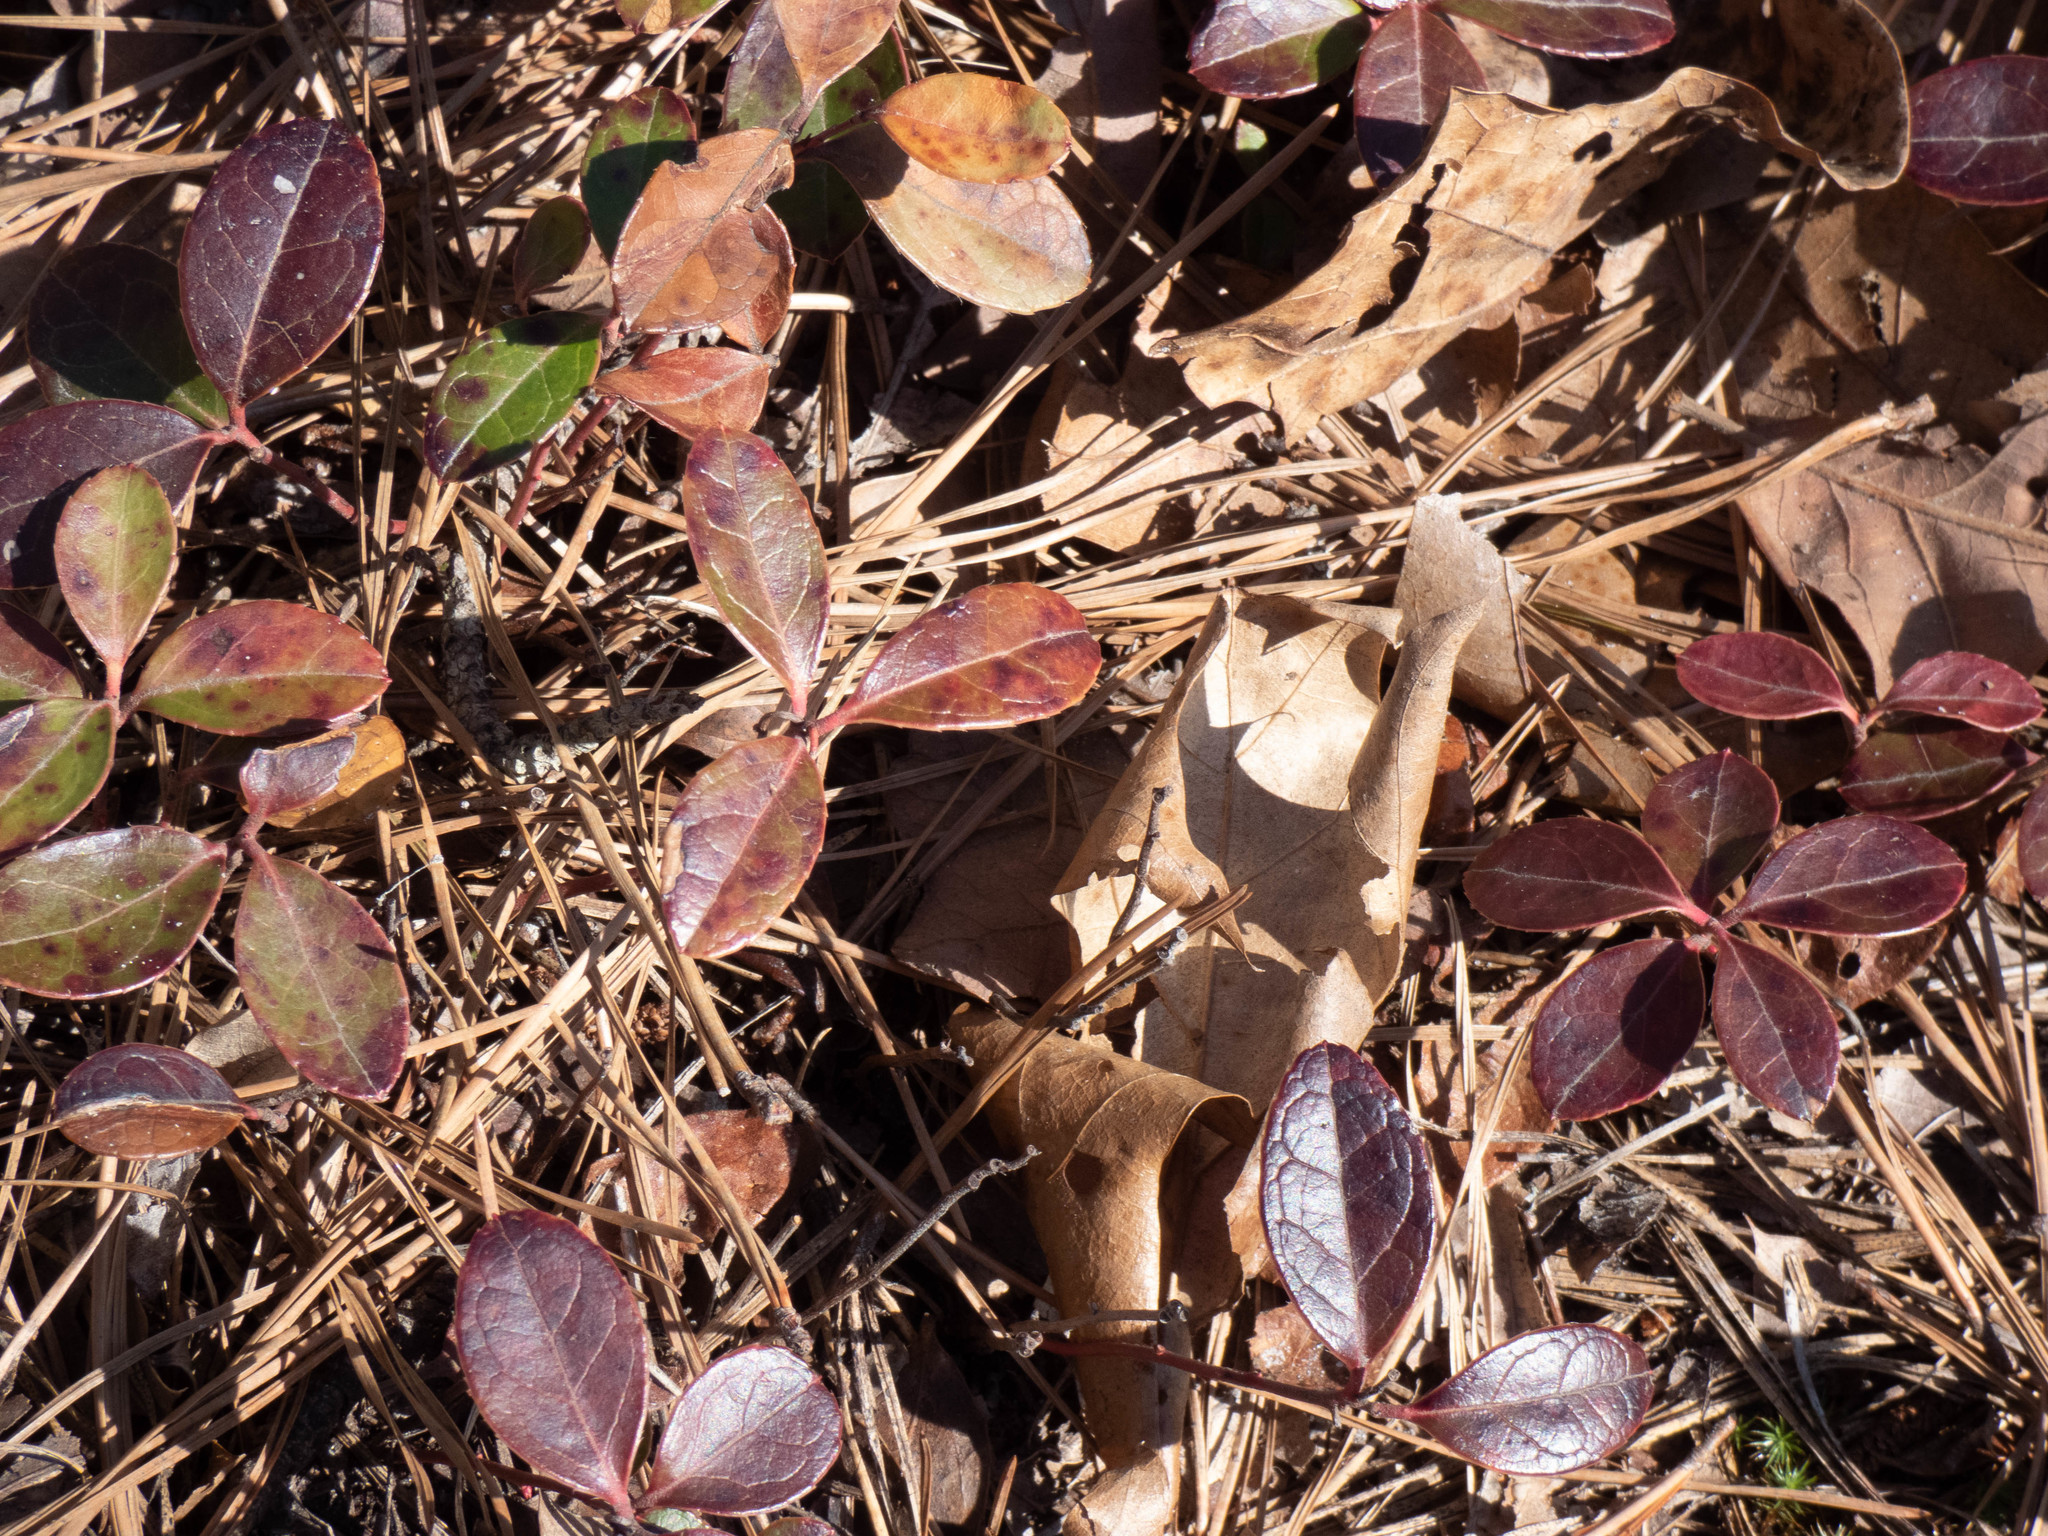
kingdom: Plantae
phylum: Tracheophyta
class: Magnoliopsida
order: Ericales
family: Ericaceae
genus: Gaultheria
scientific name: Gaultheria procumbens
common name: Checkerberry
